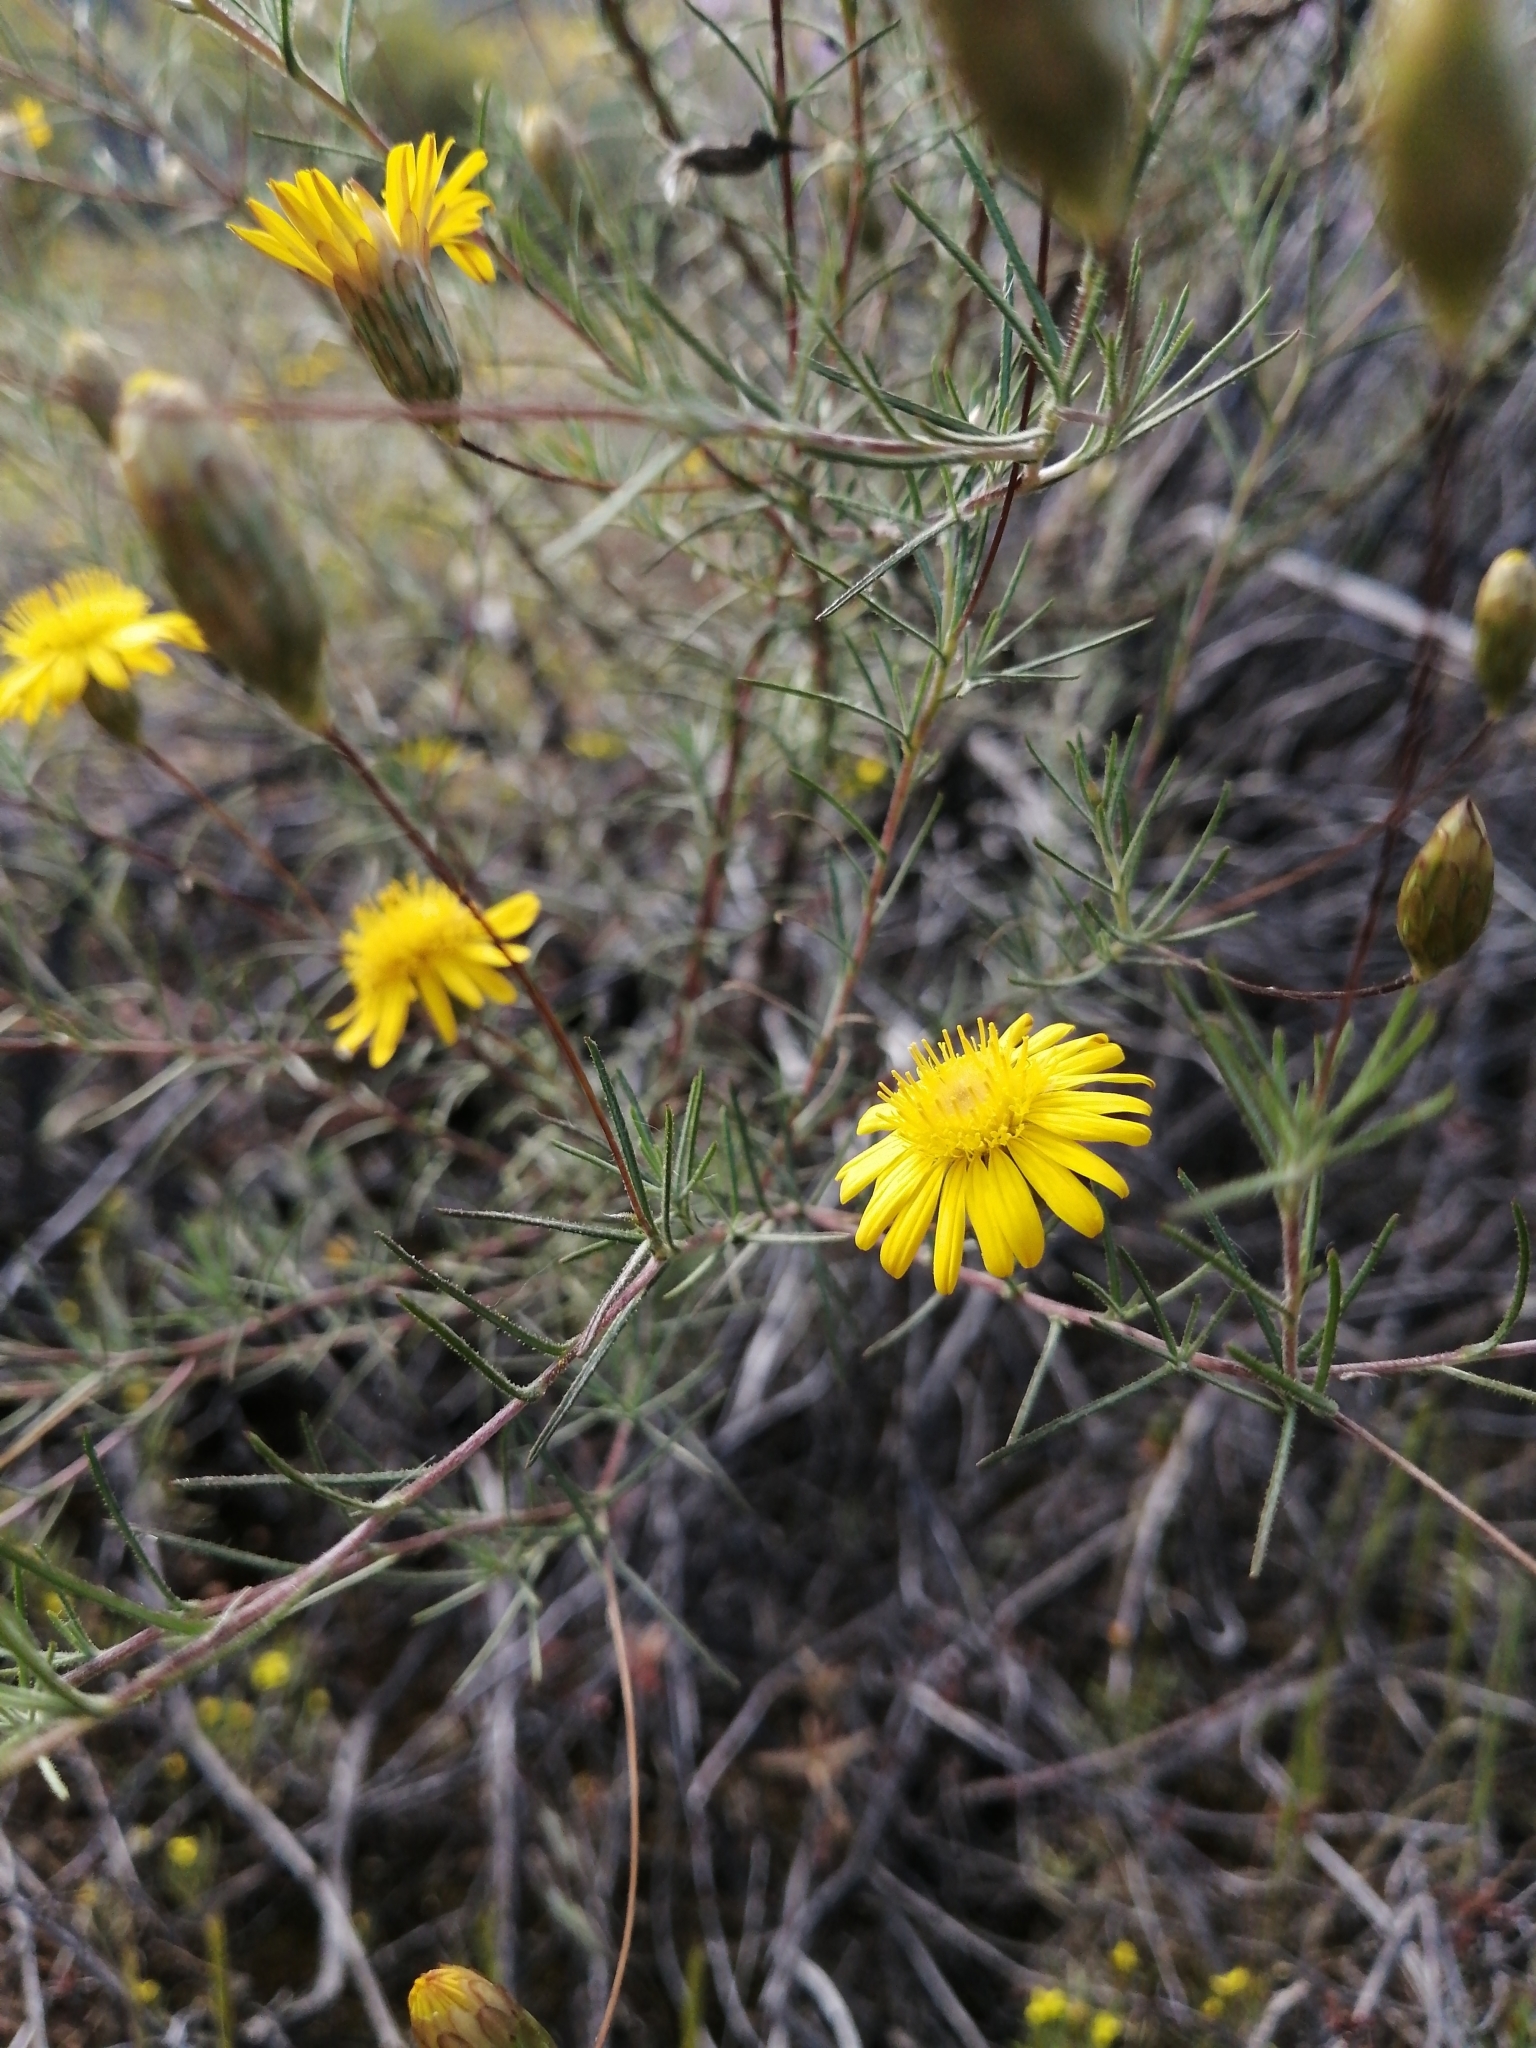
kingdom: Plantae
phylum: Tracheophyta
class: Magnoliopsida
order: Asterales
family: Asteraceae
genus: Leysera
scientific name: Leysera gnaphalodes
